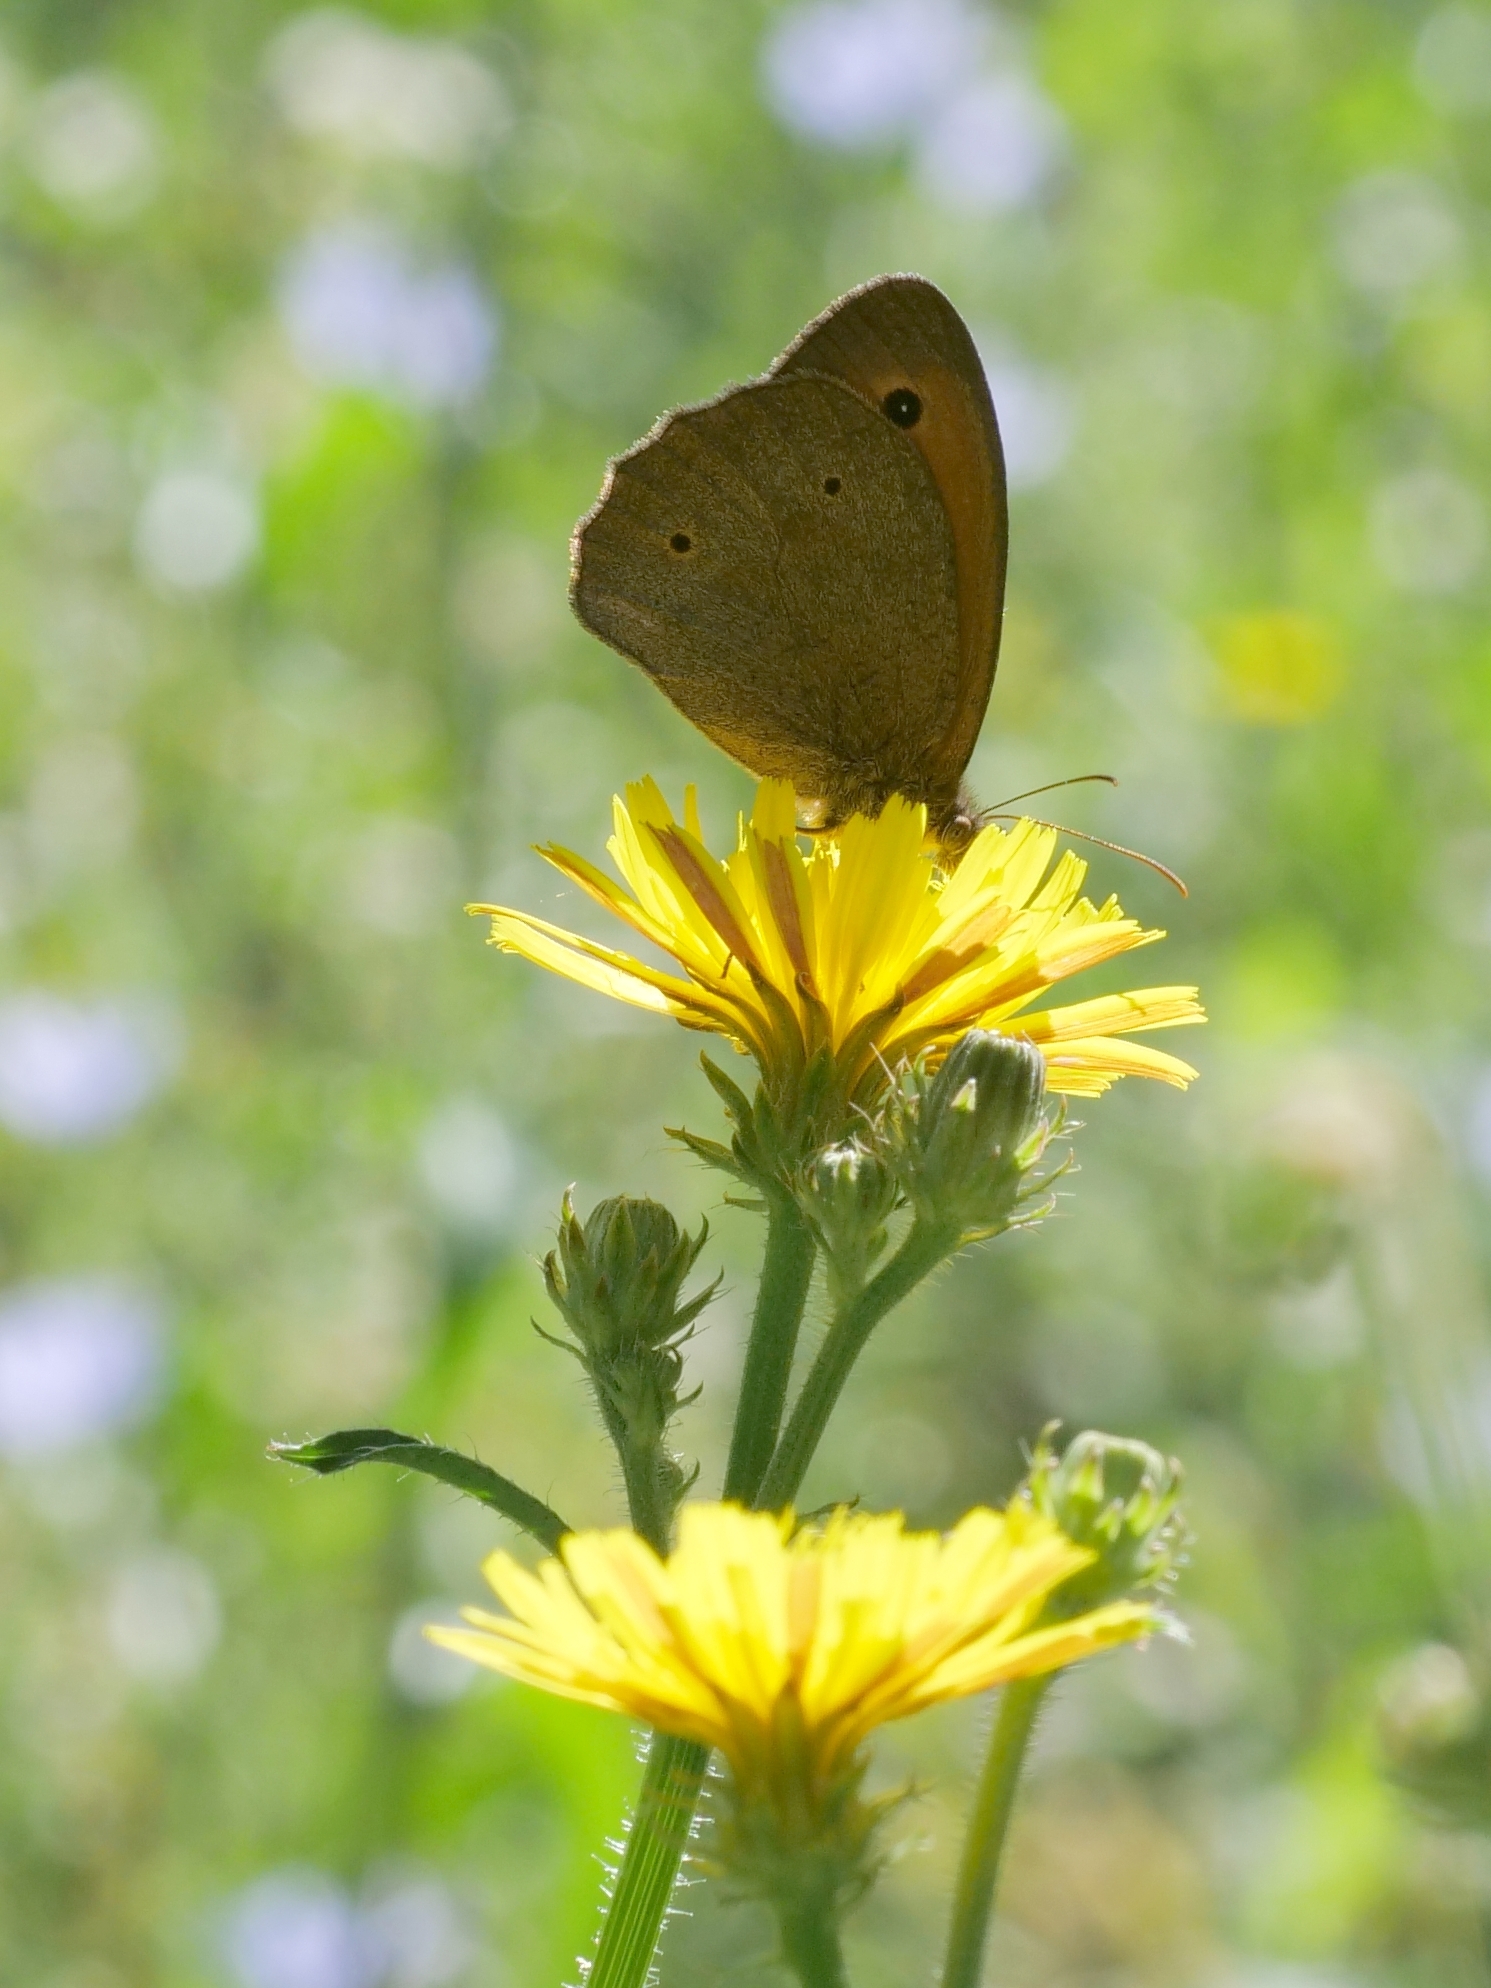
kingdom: Animalia
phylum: Arthropoda
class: Insecta
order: Lepidoptera
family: Nymphalidae
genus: Maniola
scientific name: Maniola jurtina
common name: Meadow brown
